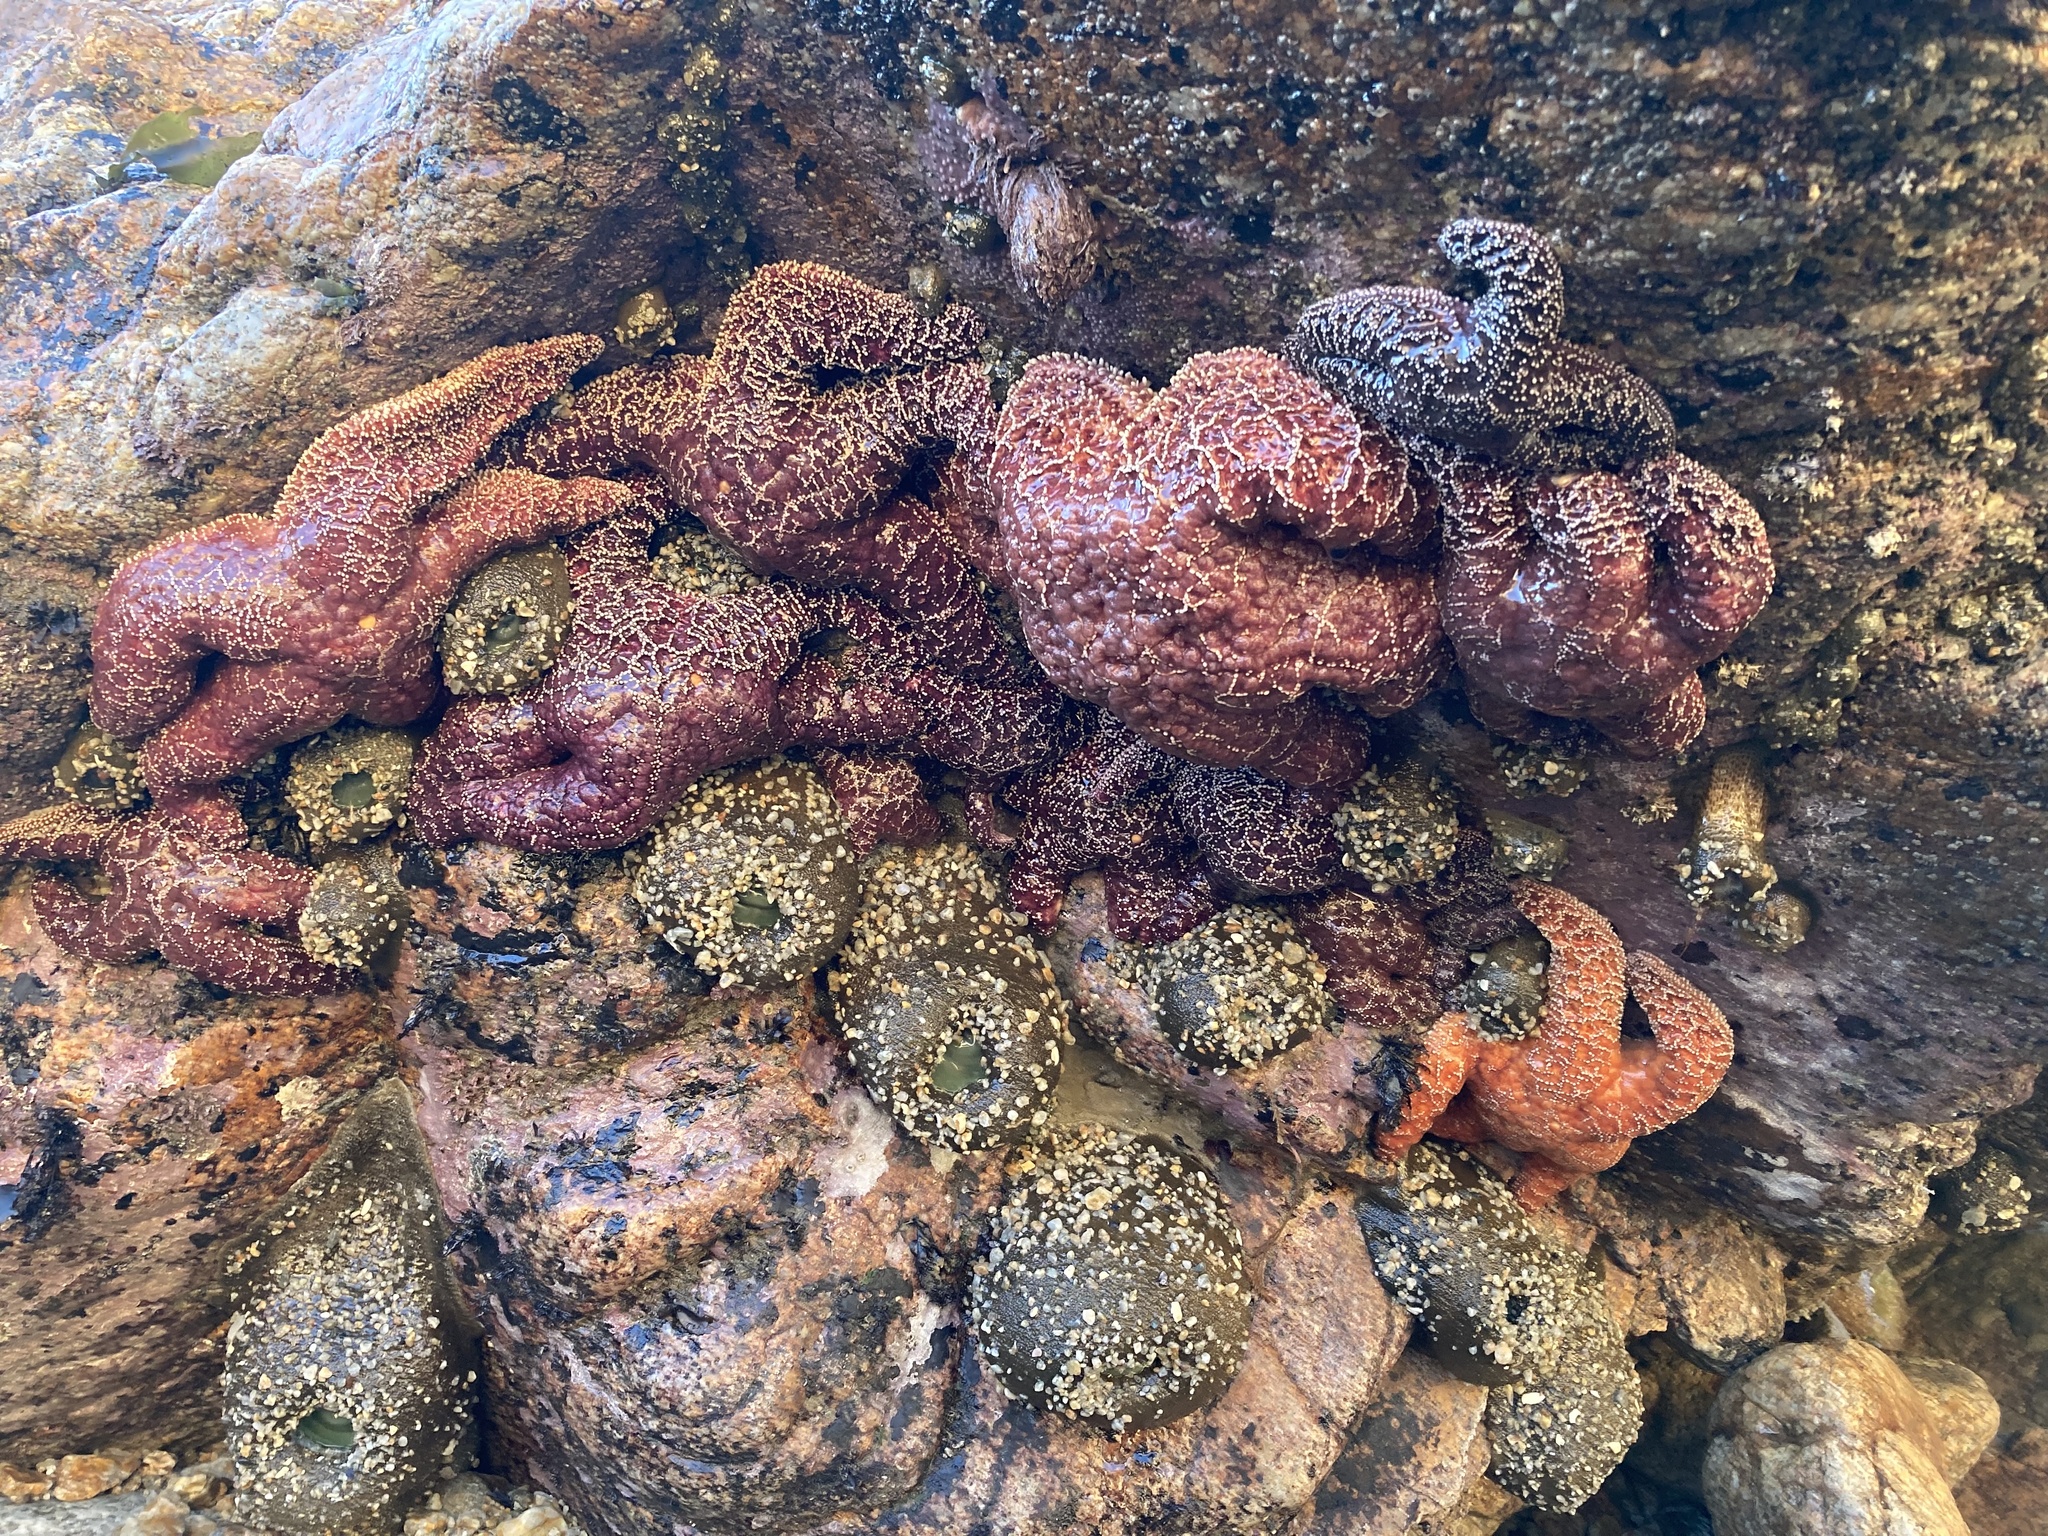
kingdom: Animalia
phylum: Echinodermata
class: Asteroidea
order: Forcipulatida
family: Asteriidae
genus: Pisaster
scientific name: Pisaster ochraceus
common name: Ochre stars
